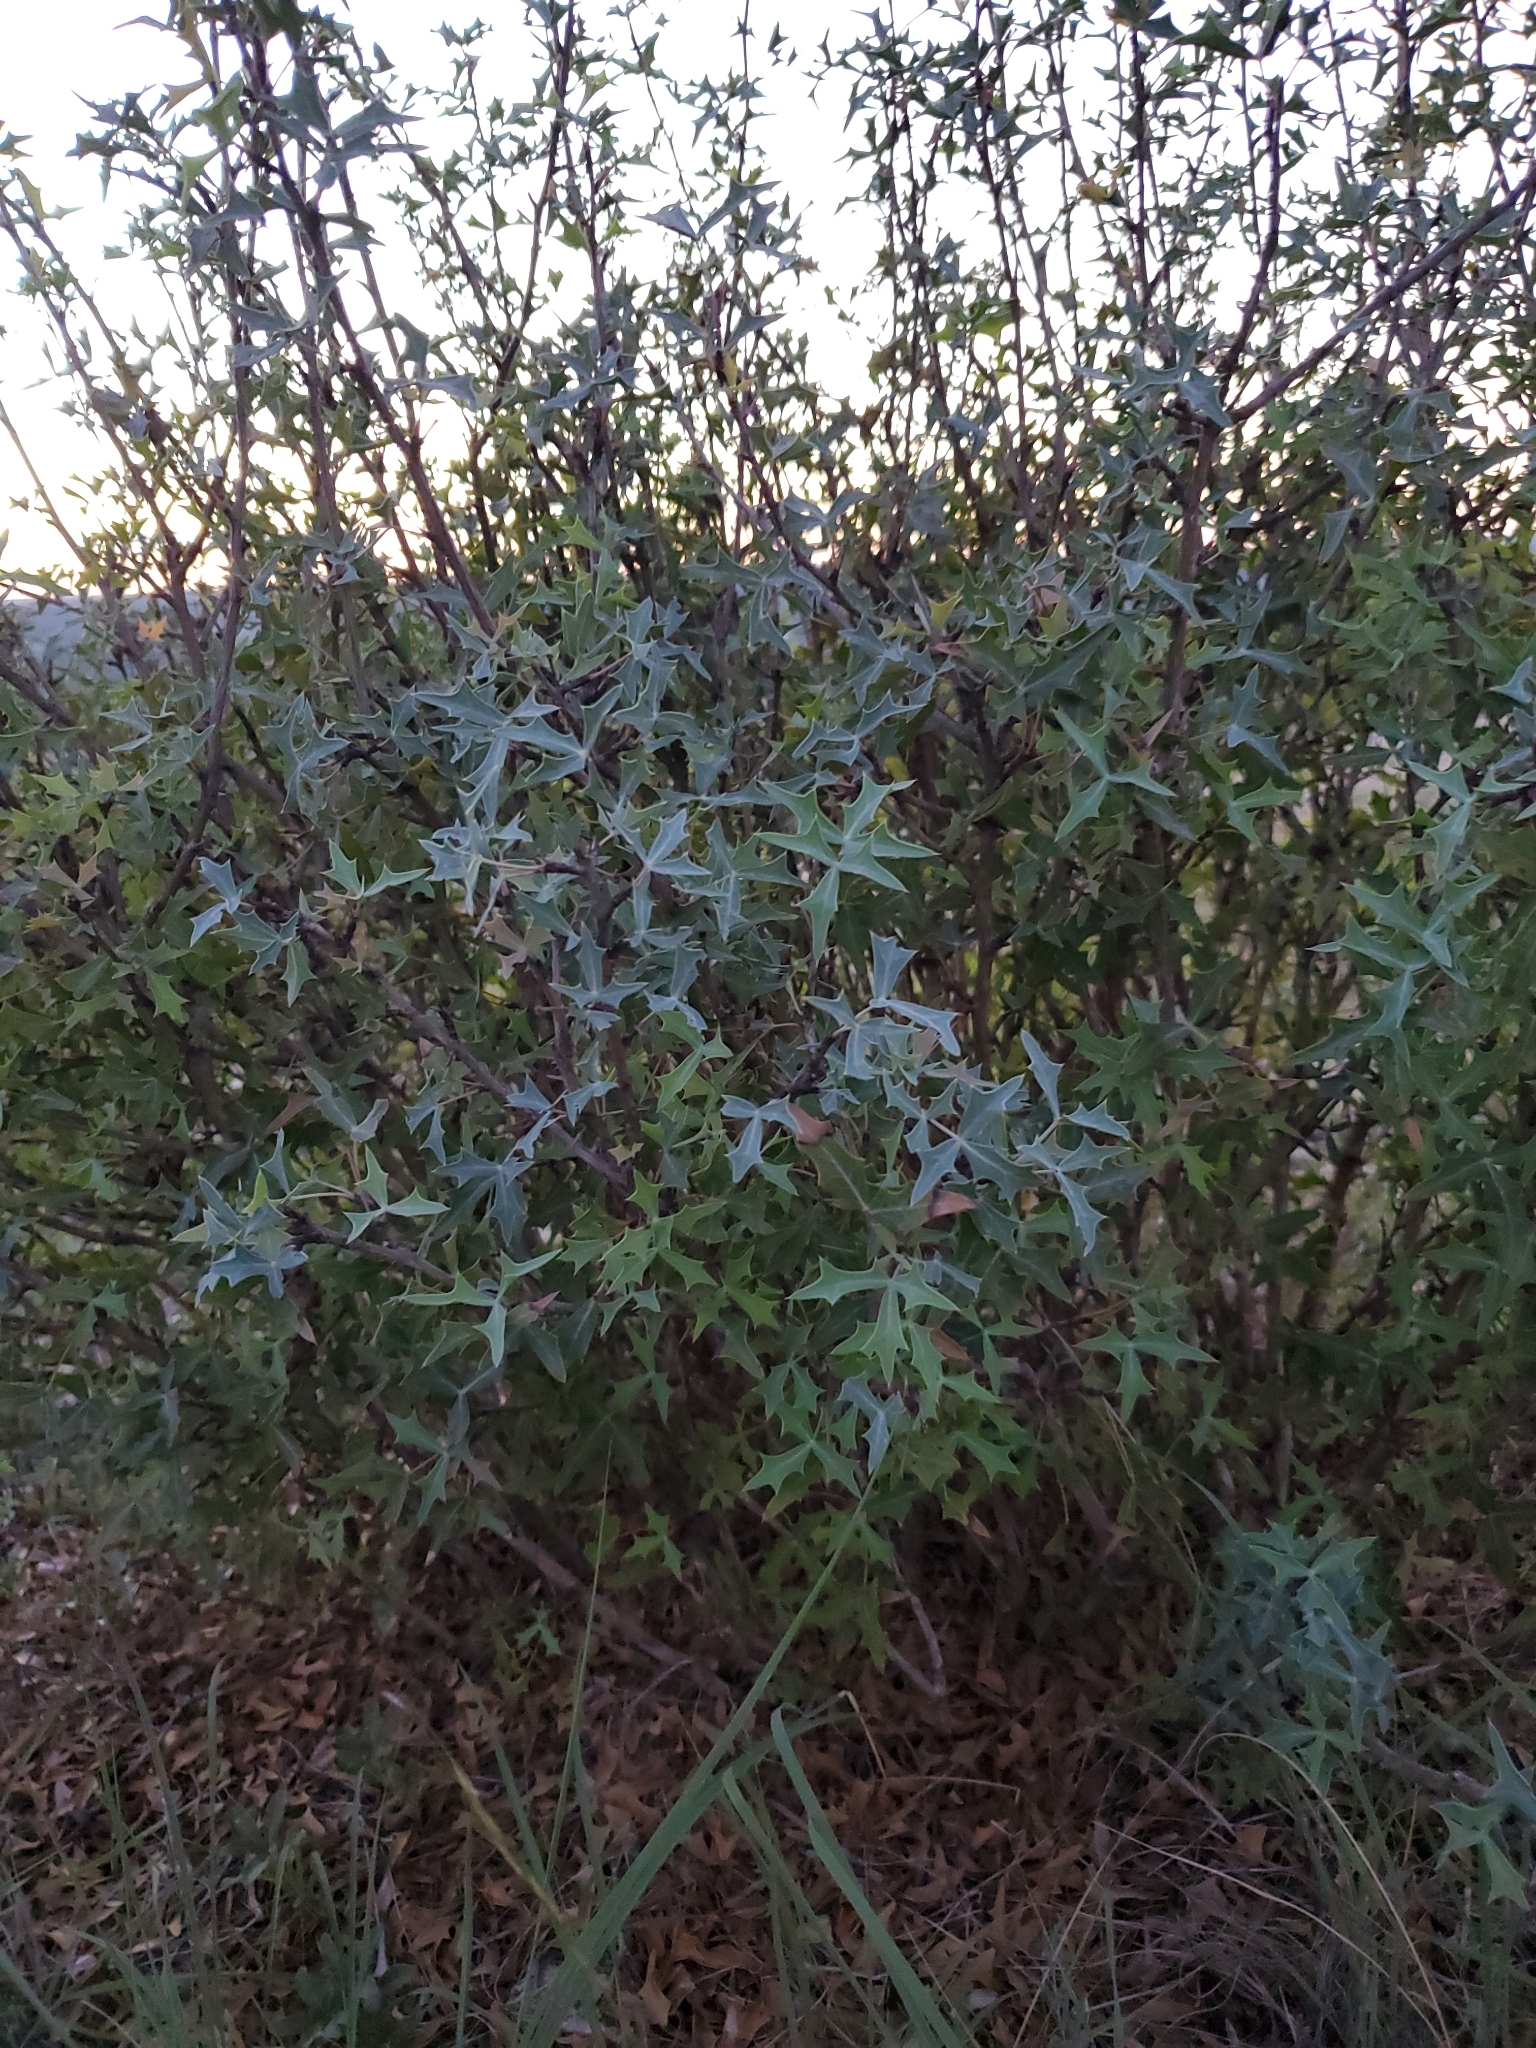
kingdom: Plantae
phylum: Tracheophyta
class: Magnoliopsida
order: Ranunculales
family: Berberidaceae
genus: Alloberberis
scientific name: Alloberberis trifoliolata
